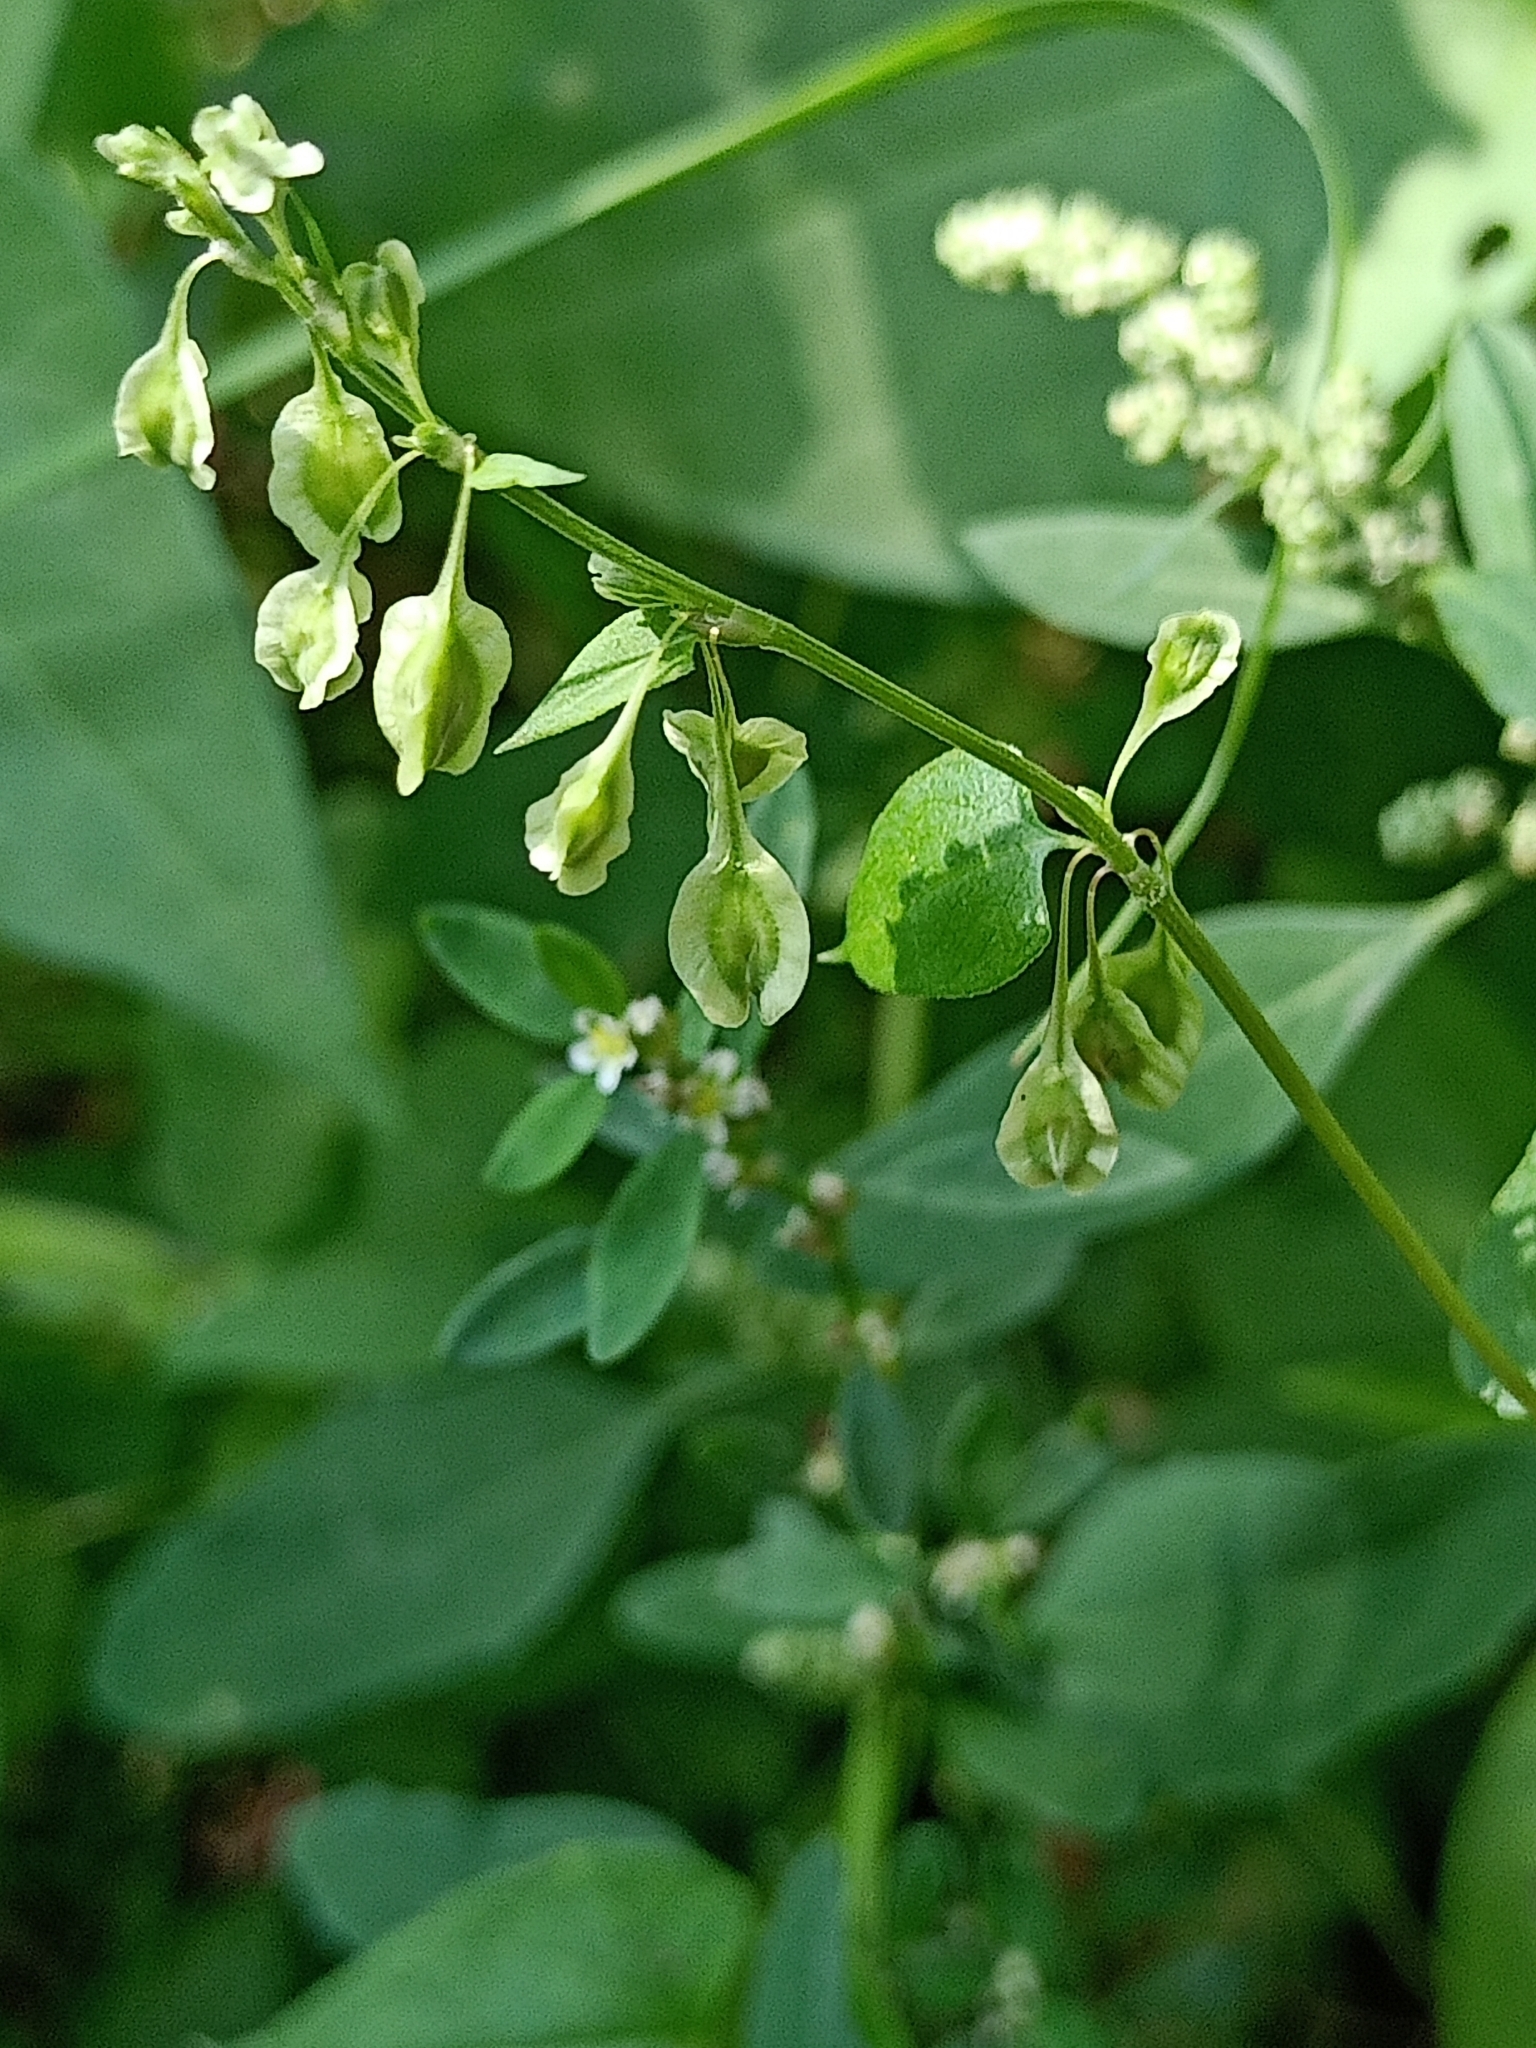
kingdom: Plantae
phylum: Tracheophyta
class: Magnoliopsida
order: Caryophyllales
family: Polygonaceae
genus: Fallopia
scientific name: Fallopia convolvulus
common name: Black bindweed
